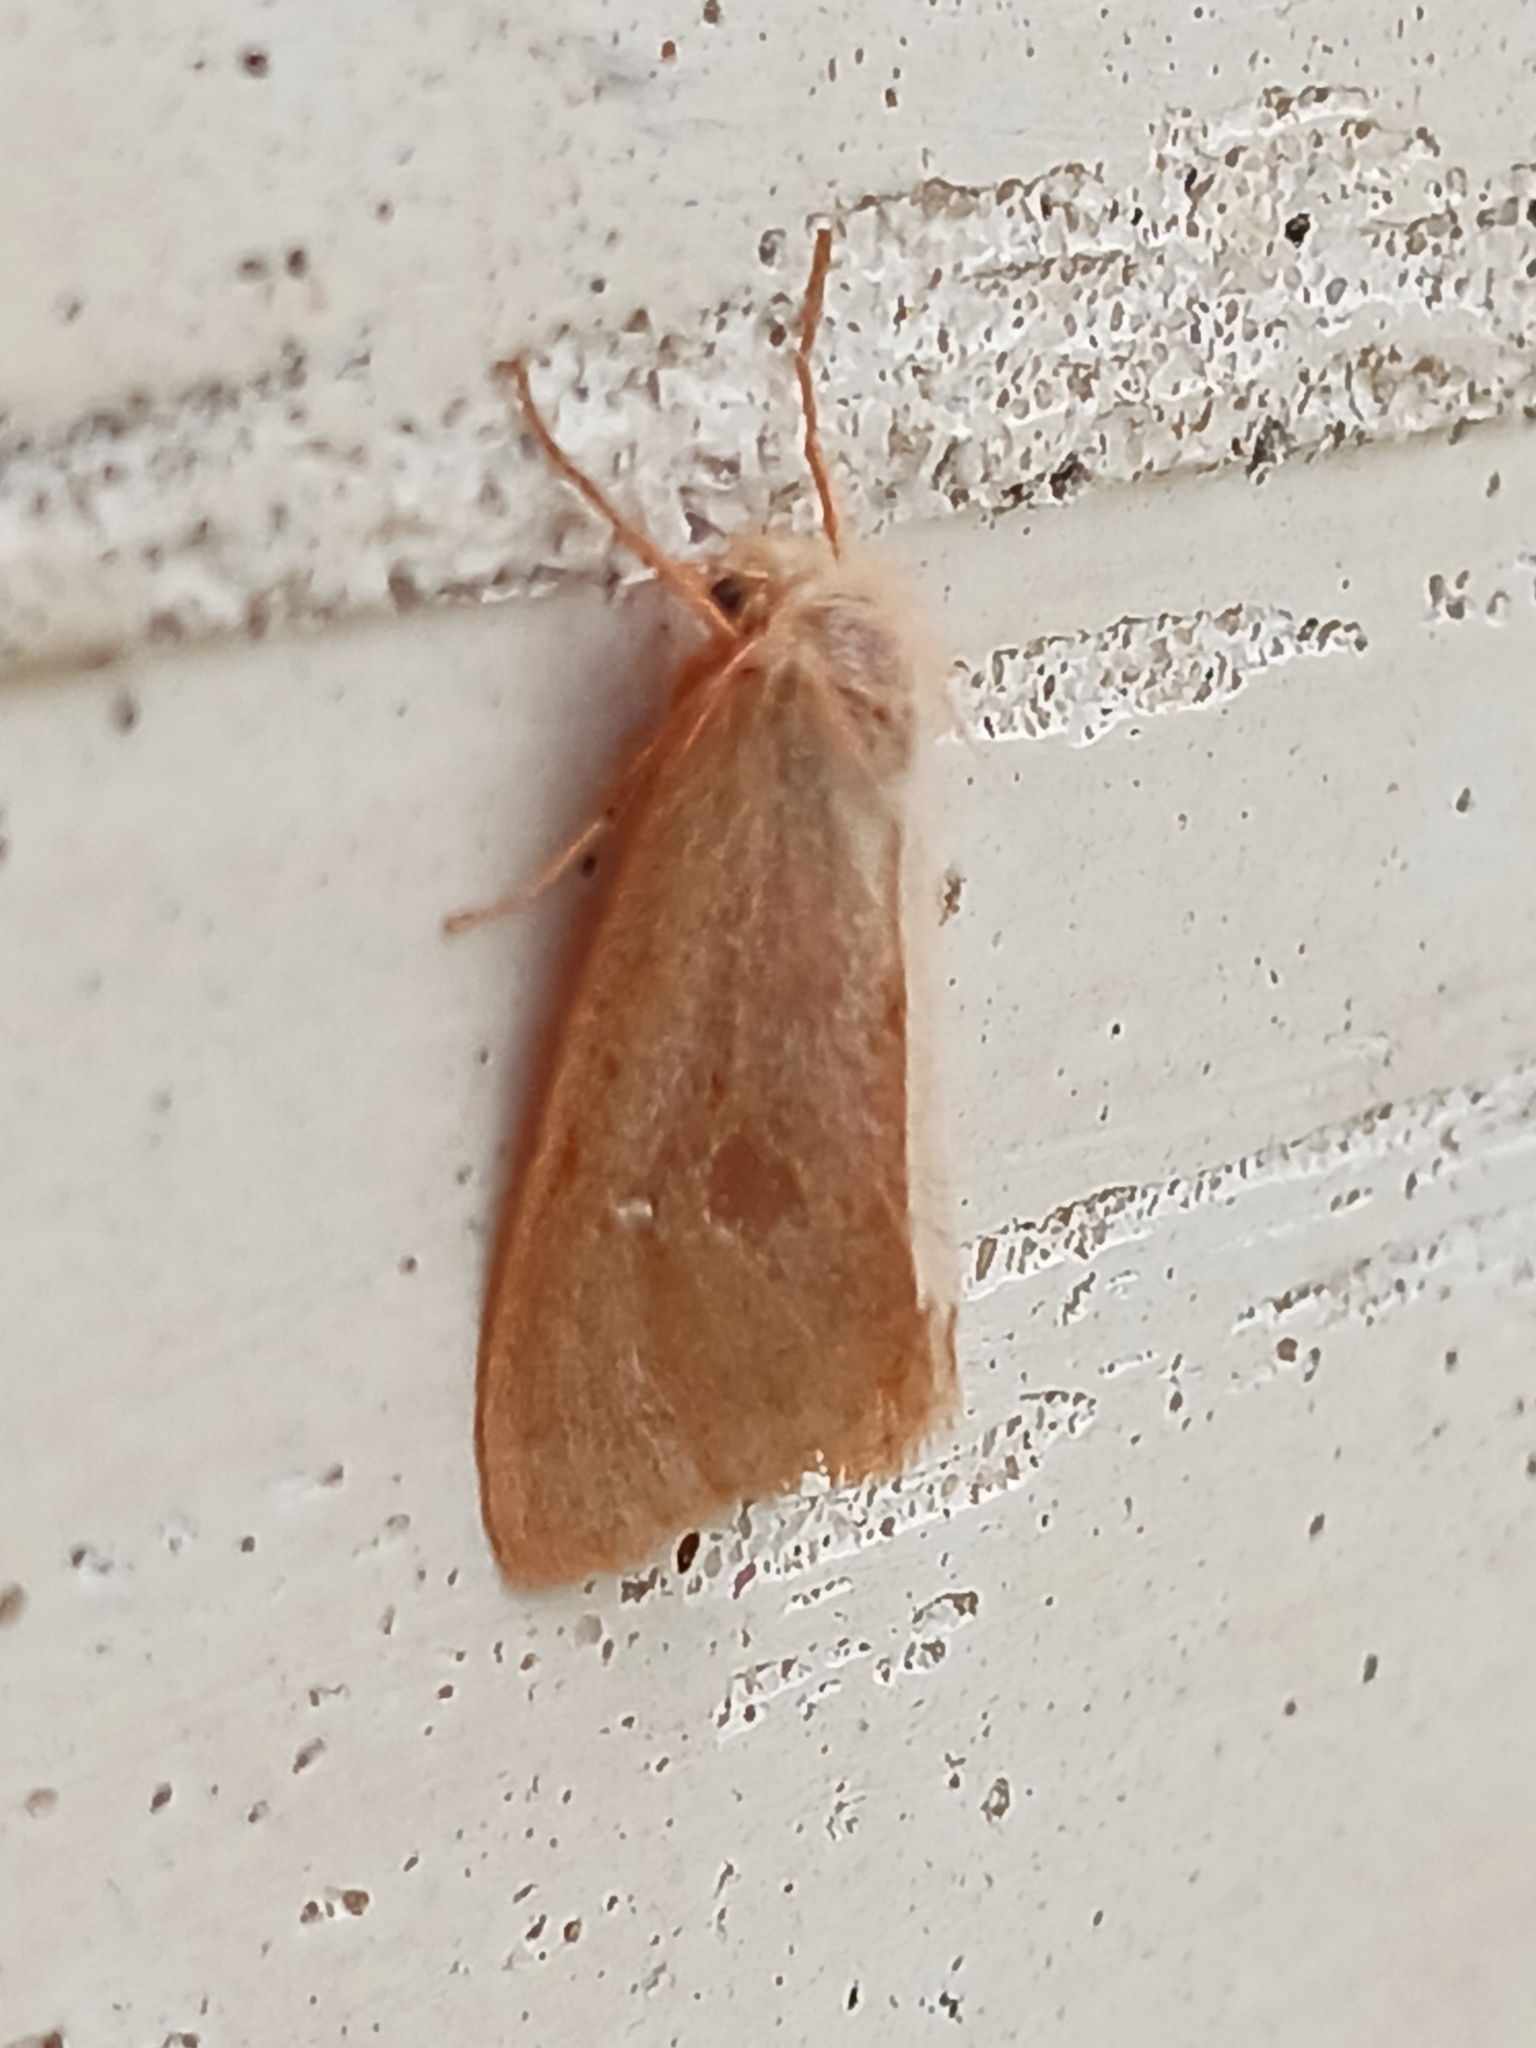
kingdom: Animalia
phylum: Arthropoda
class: Insecta
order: Lepidoptera
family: Erebidae
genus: Ocneria
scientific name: Ocneria rubea
